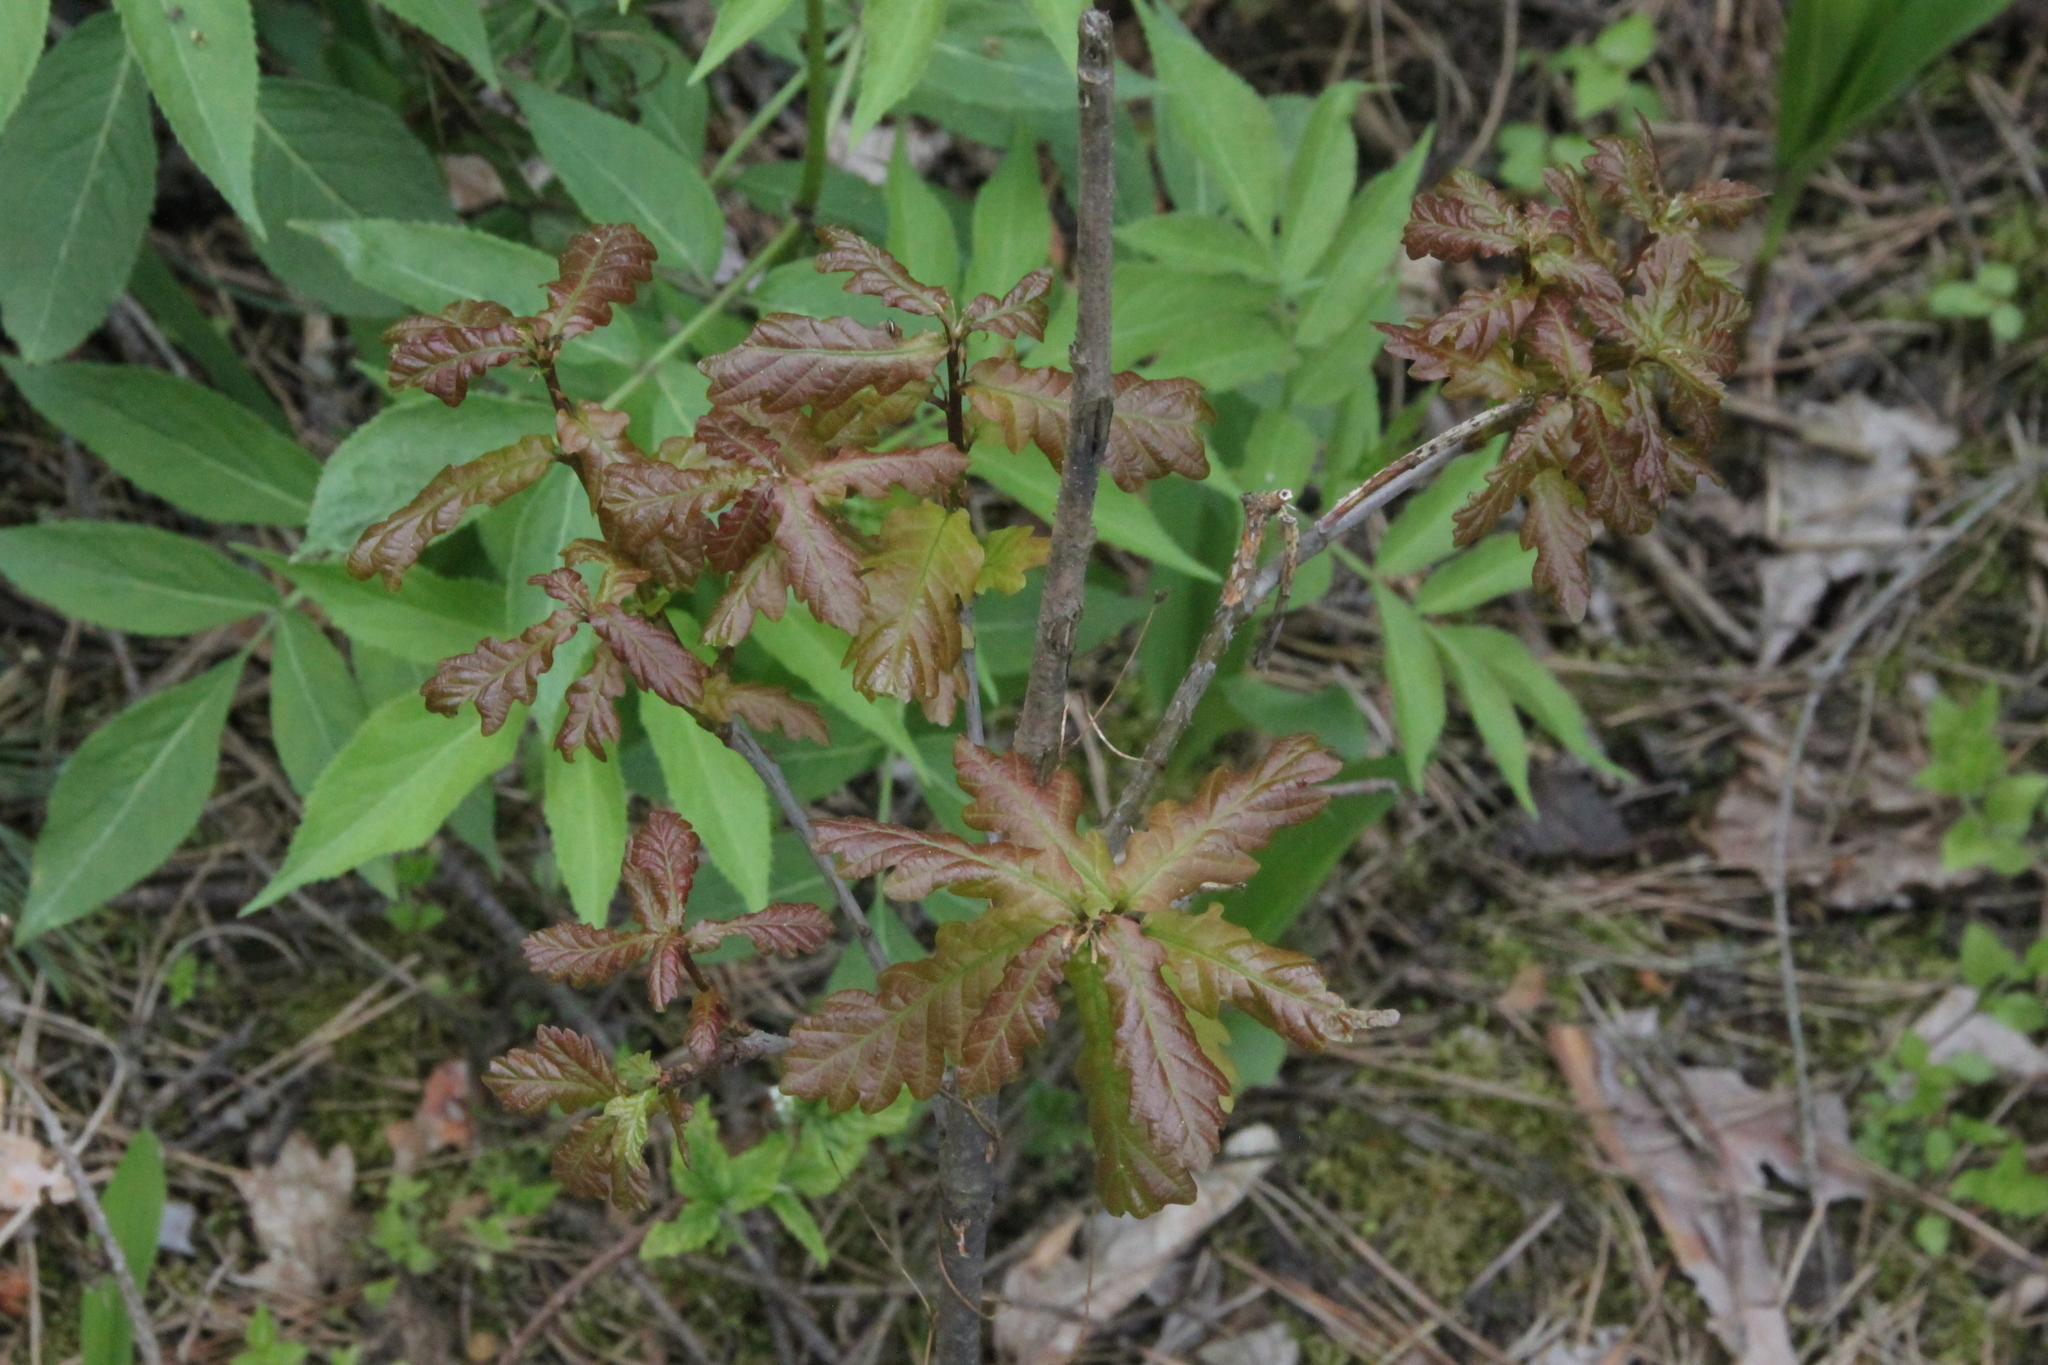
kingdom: Plantae
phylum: Tracheophyta
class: Magnoliopsida
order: Fagales
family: Fagaceae
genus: Quercus
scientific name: Quercus robur
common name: Pedunculate oak
